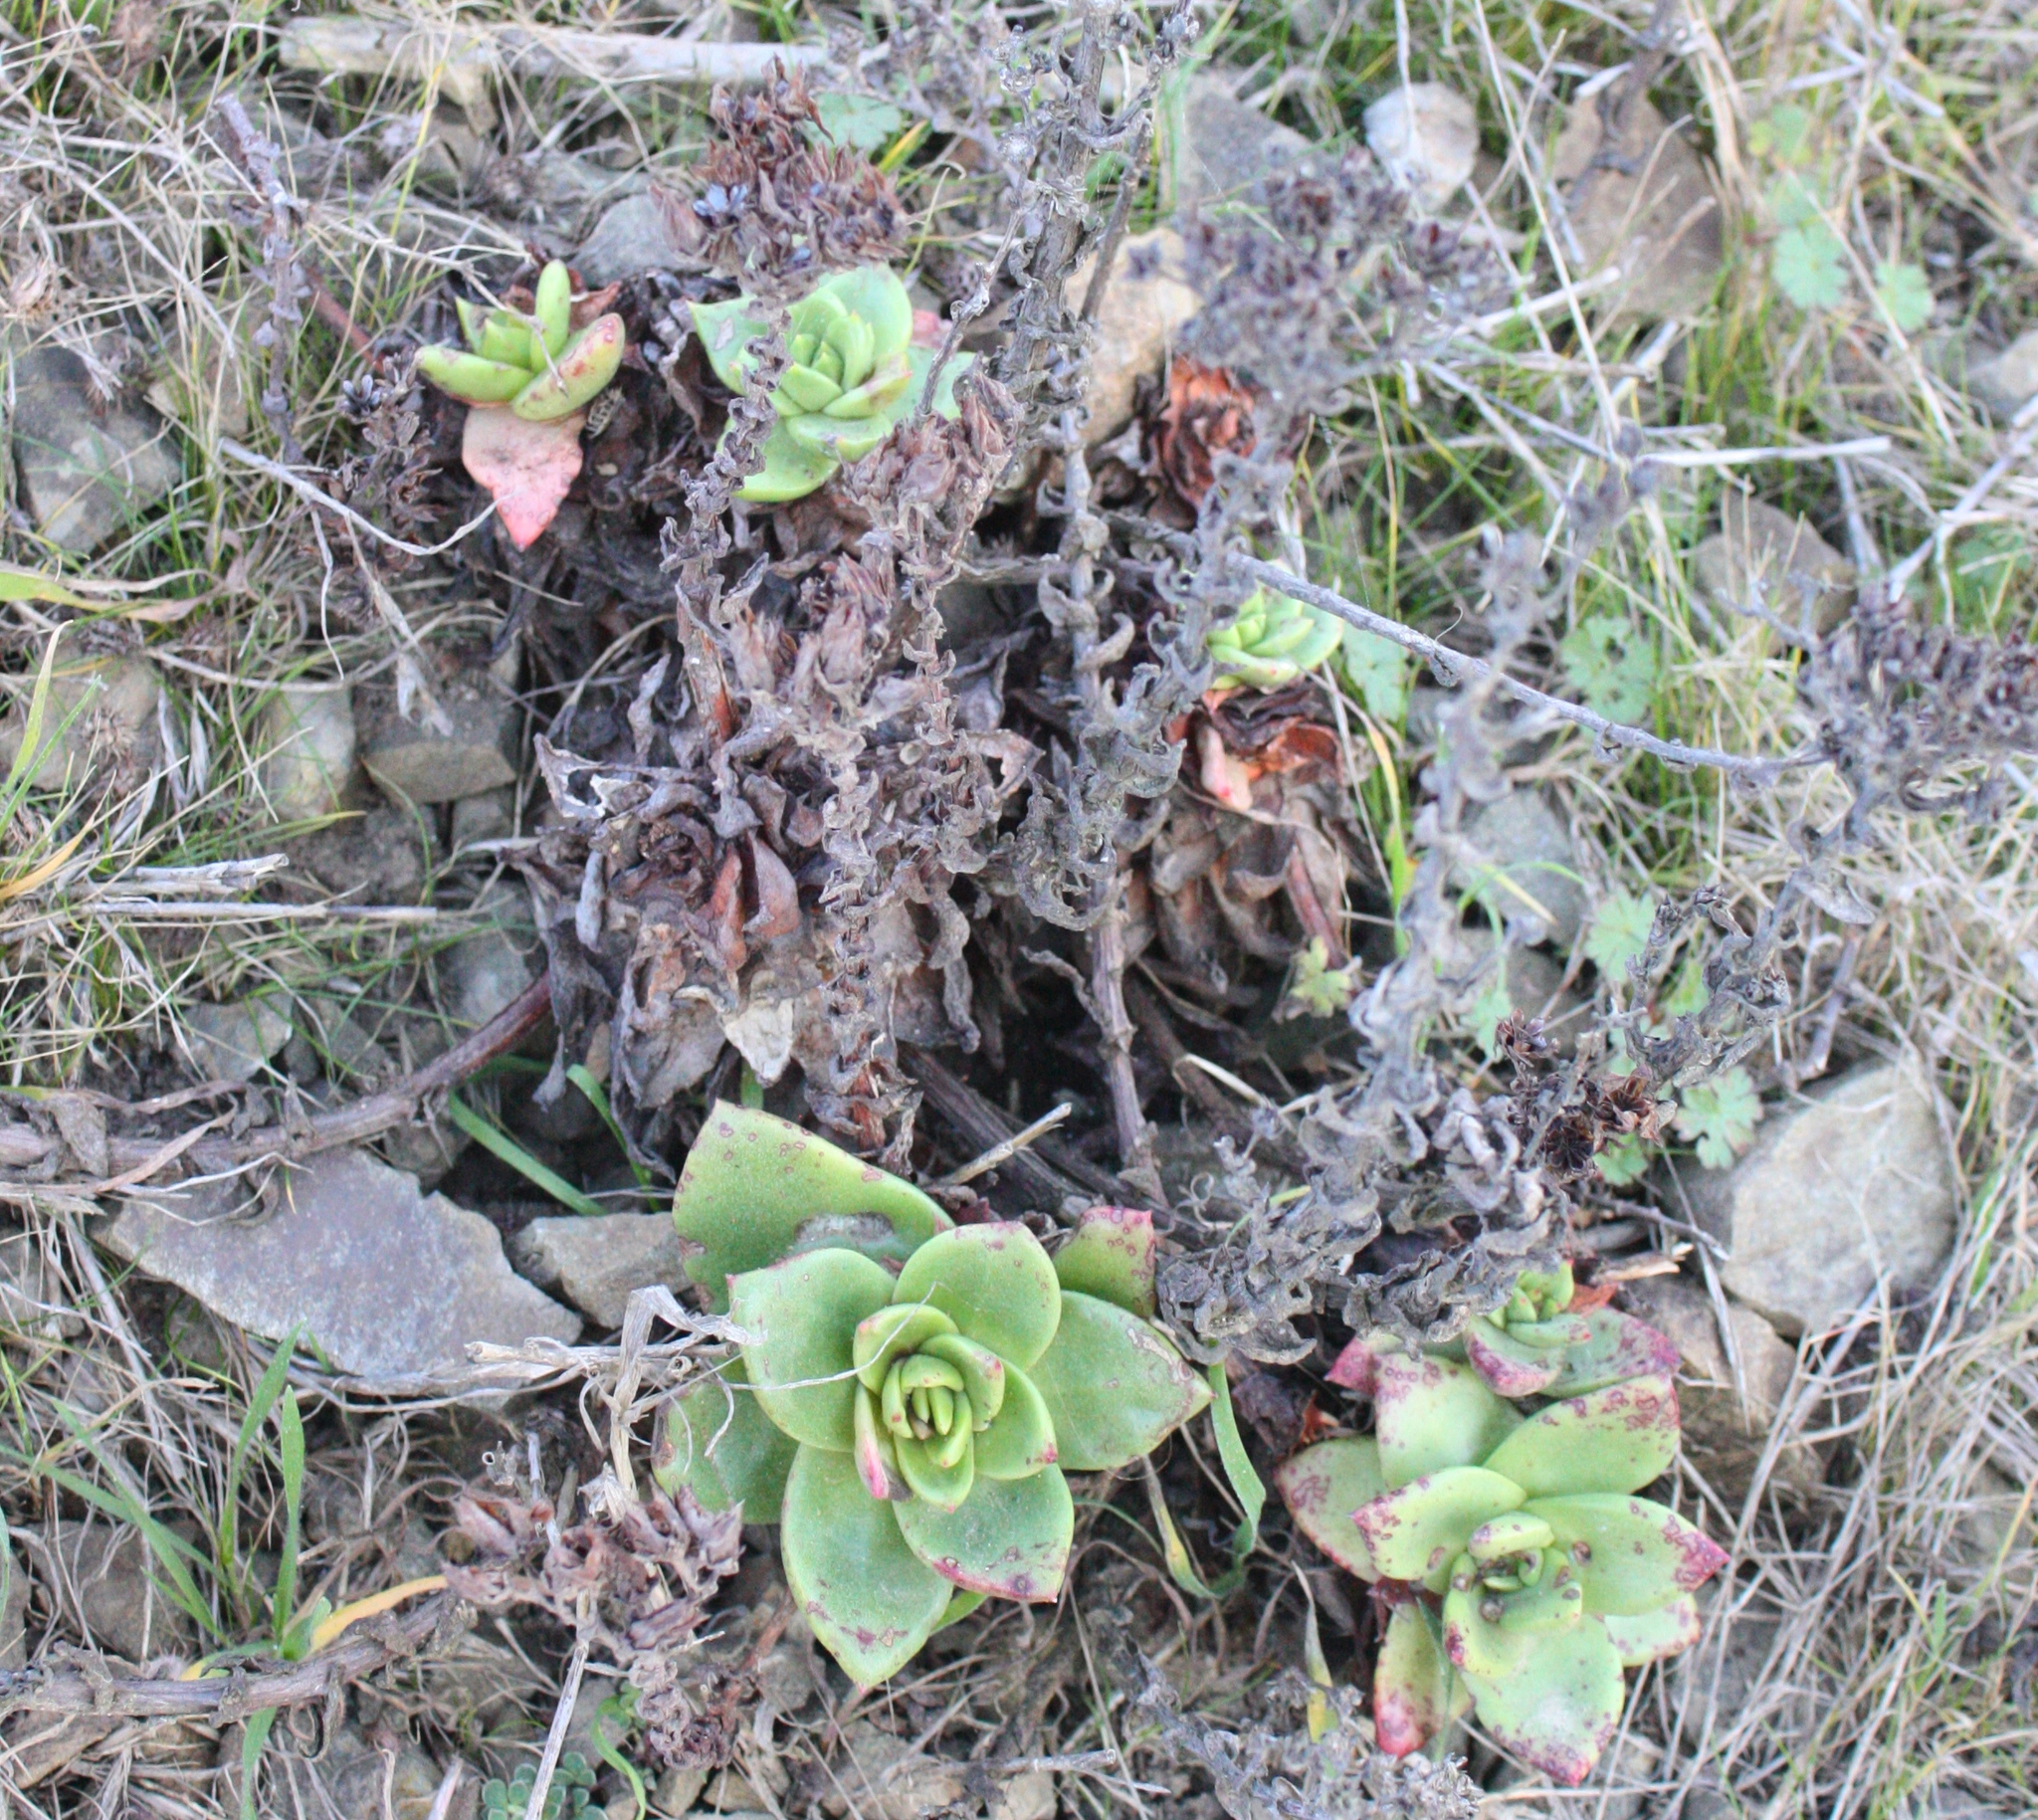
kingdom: Plantae
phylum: Tracheophyta
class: Magnoliopsida
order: Saxifragales
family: Crassulaceae
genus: Dudleya
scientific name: Dudleya farinosa
